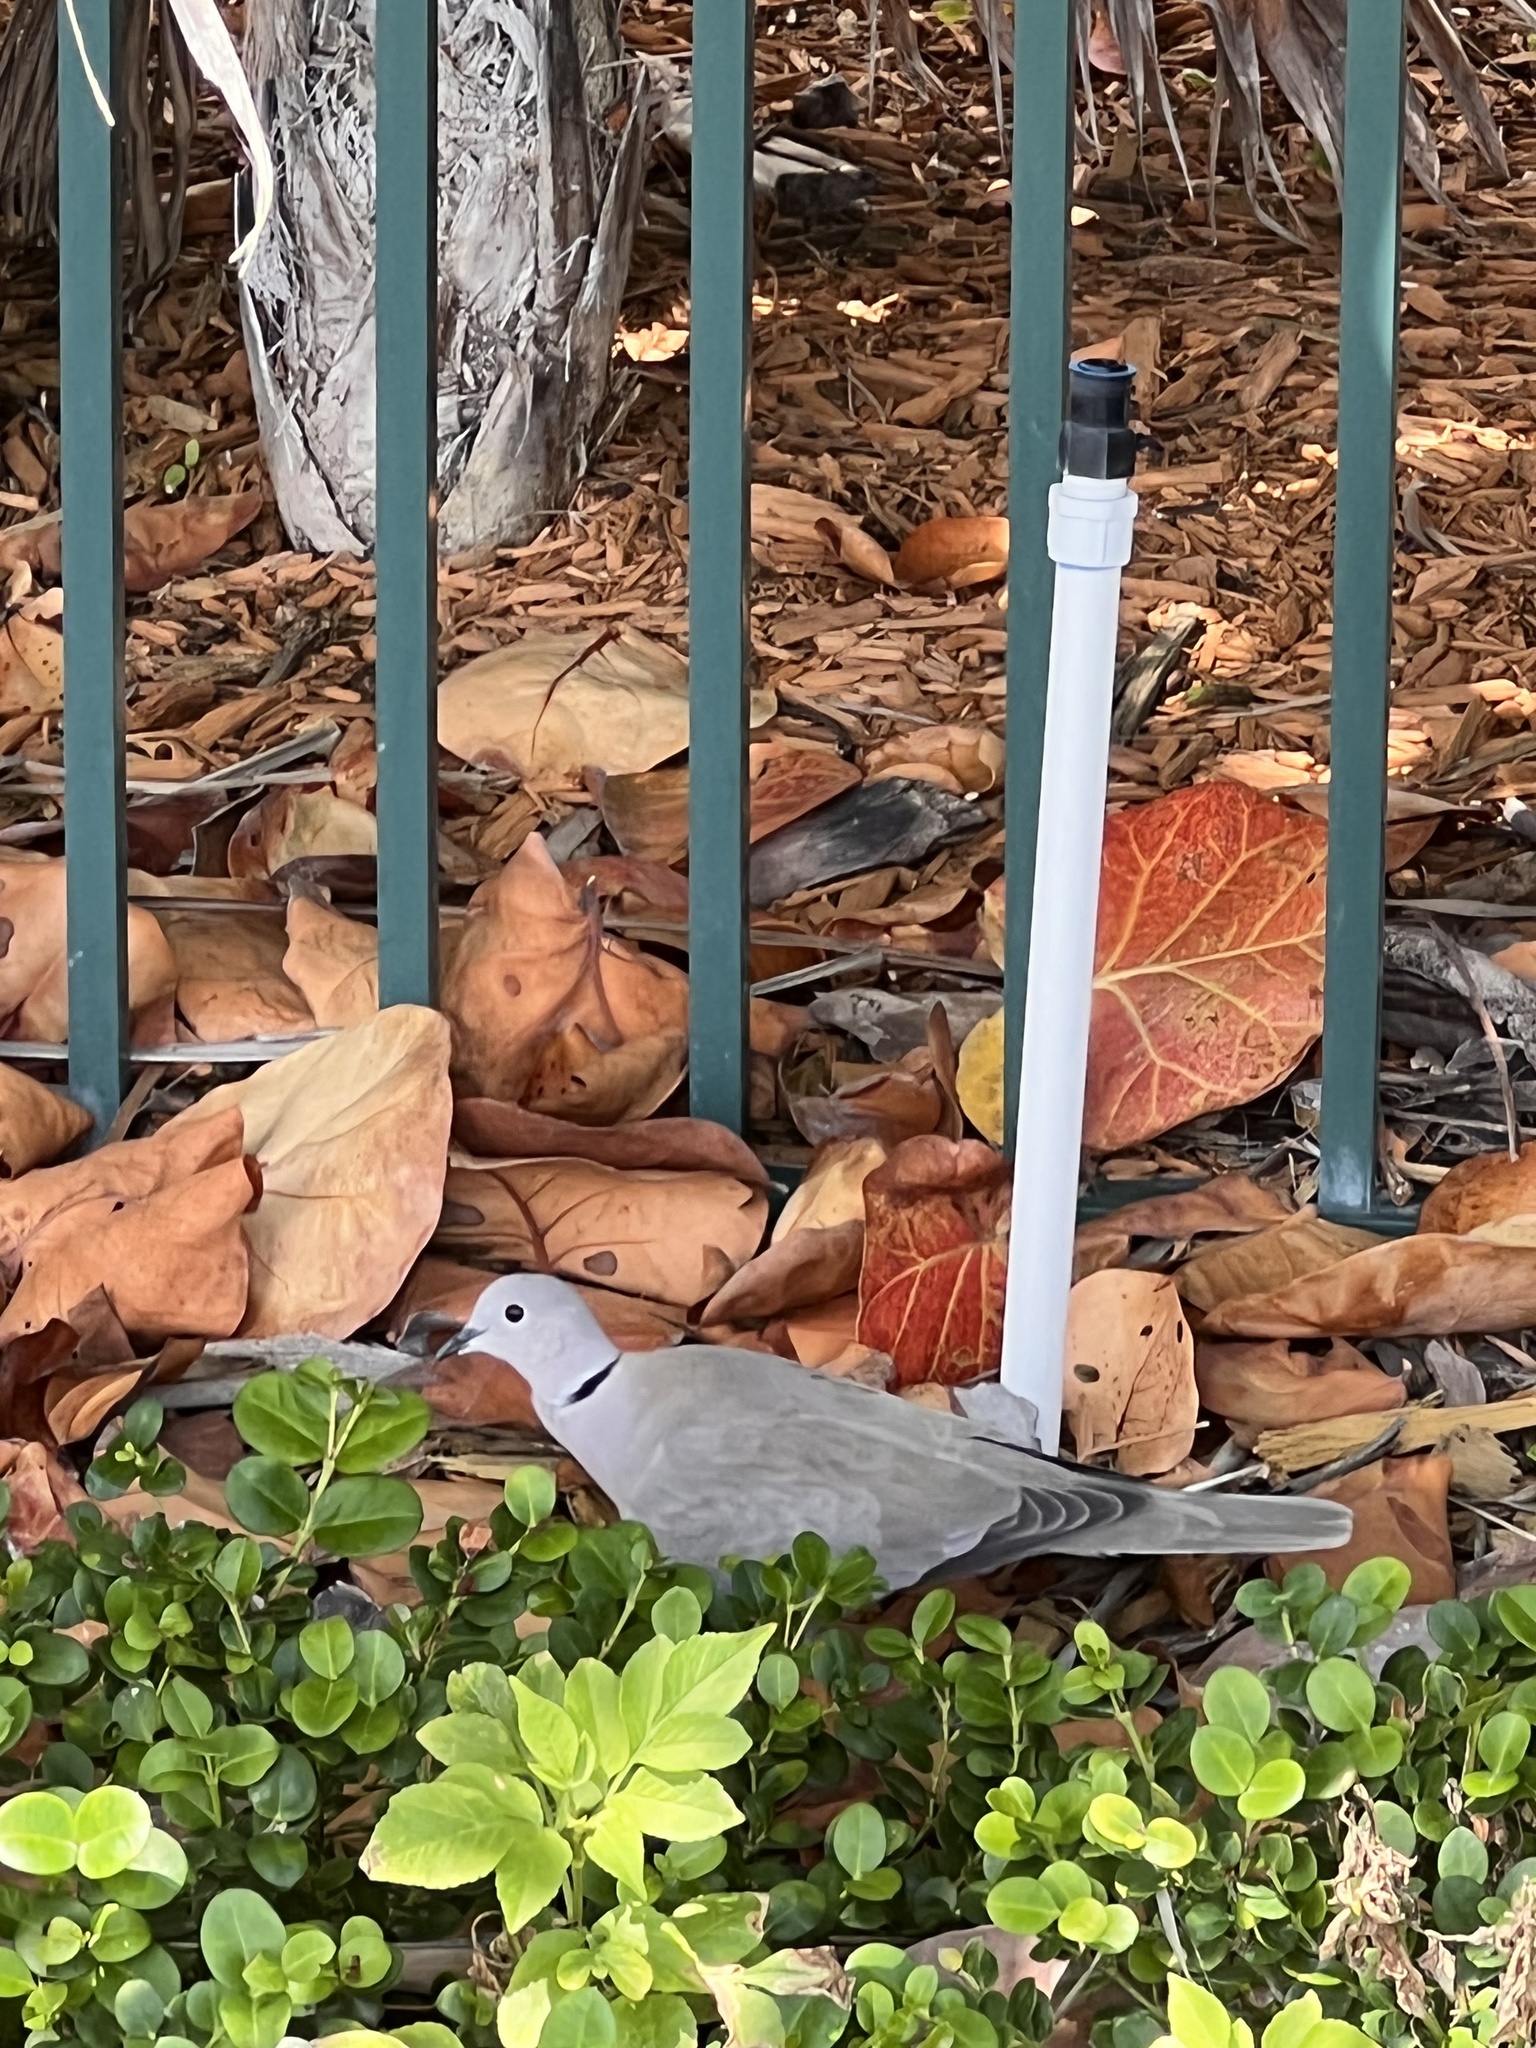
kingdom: Animalia
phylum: Chordata
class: Aves
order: Columbiformes
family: Columbidae
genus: Streptopelia
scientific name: Streptopelia decaocto
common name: Eurasian collared dove
